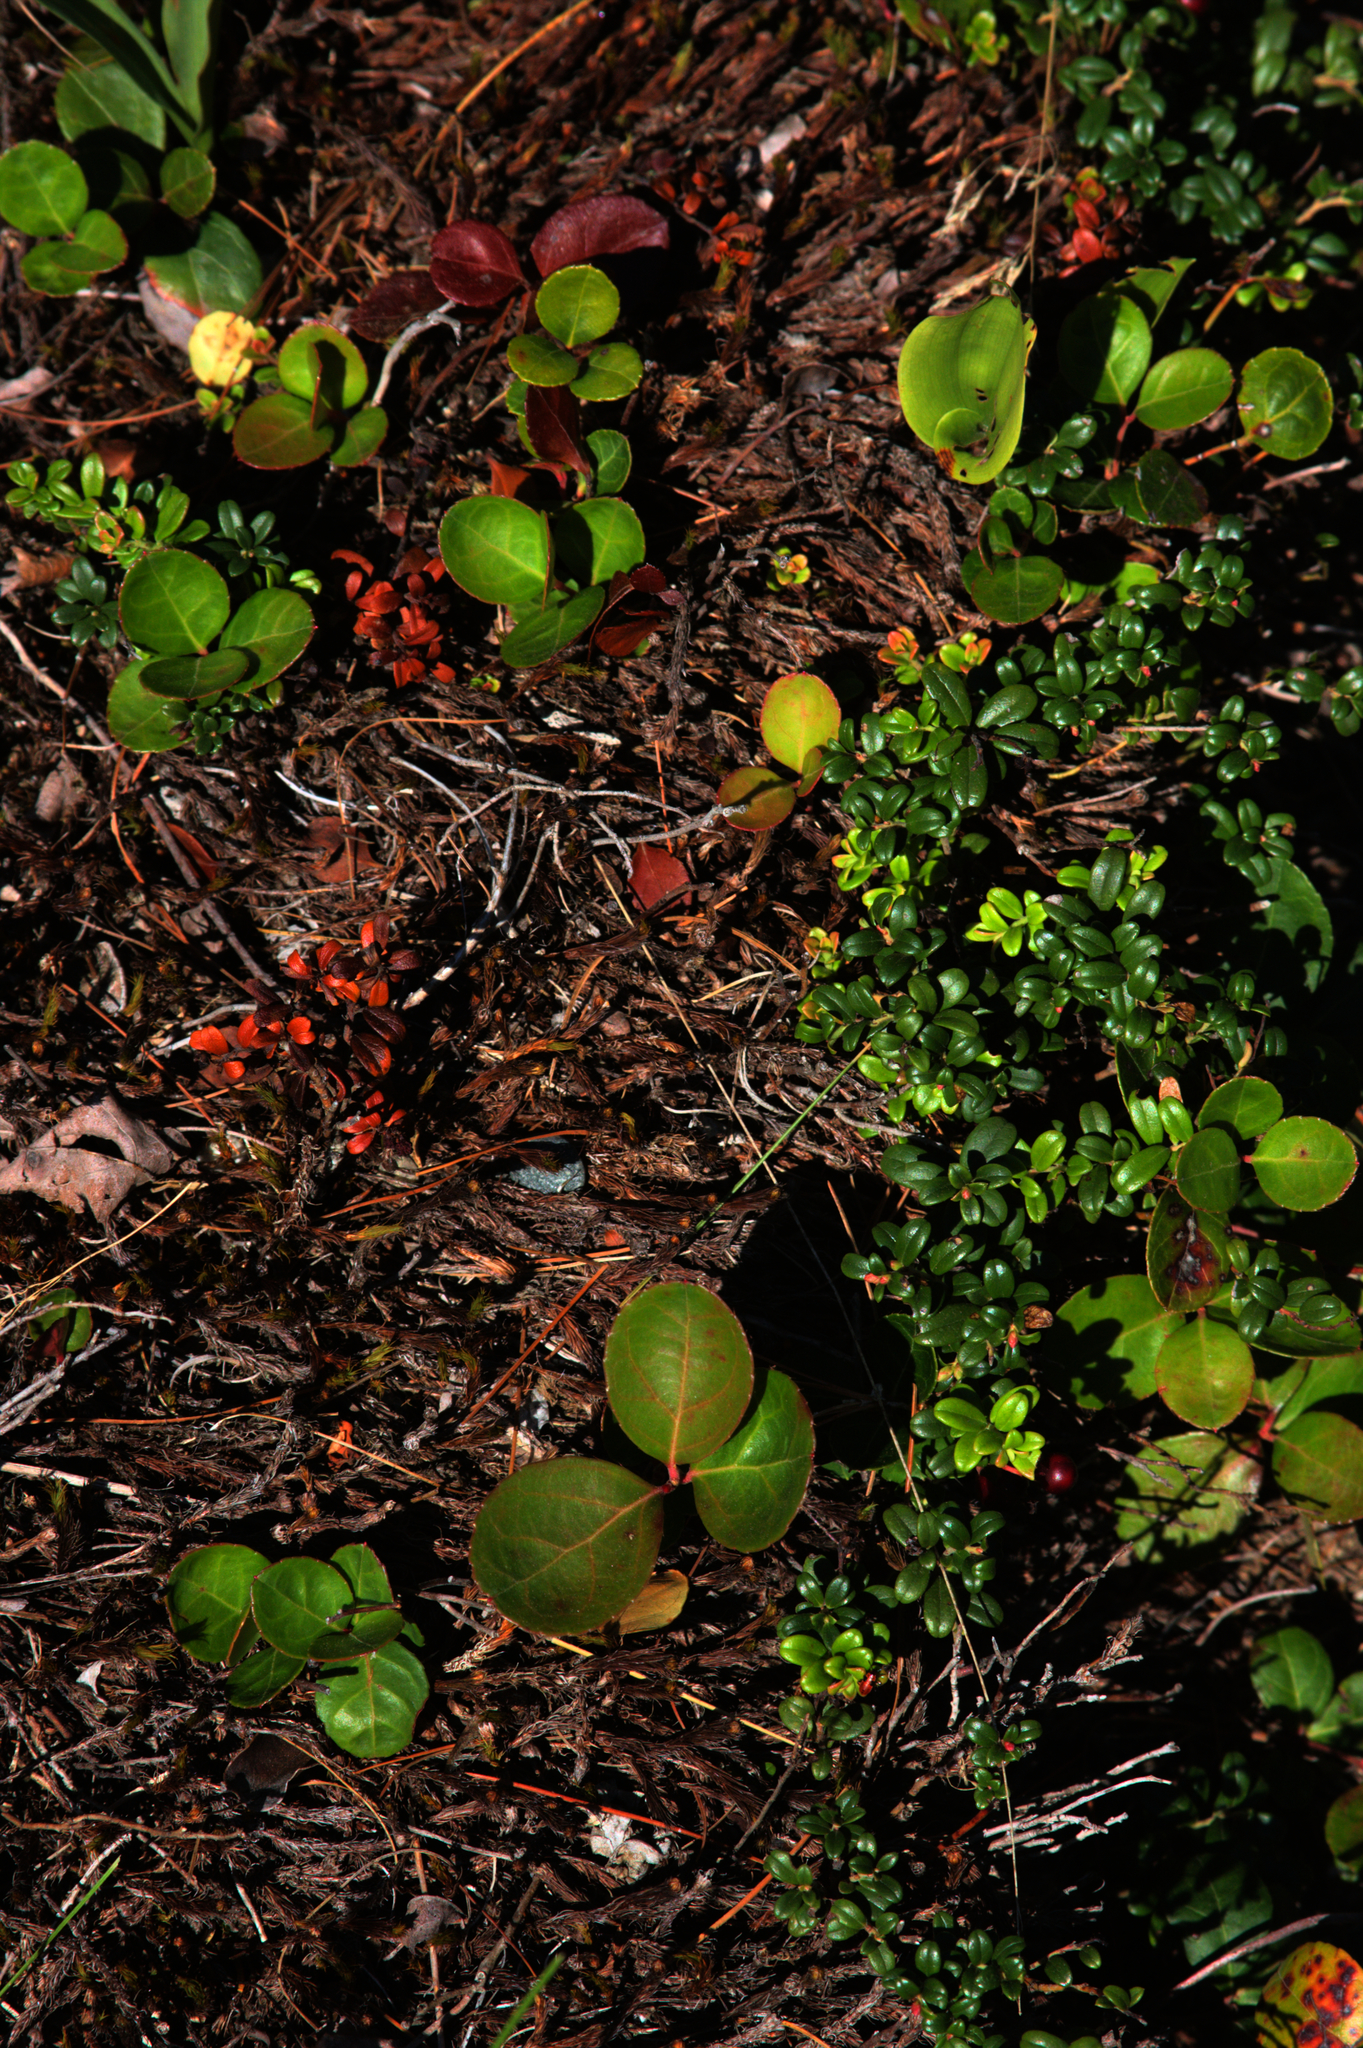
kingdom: Plantae
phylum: Tracheophyta
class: Magnoliopsida
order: Ericales
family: Ericaceae
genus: Gaultheria
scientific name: Gaultheria hispidula
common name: Cancer wintergreen
